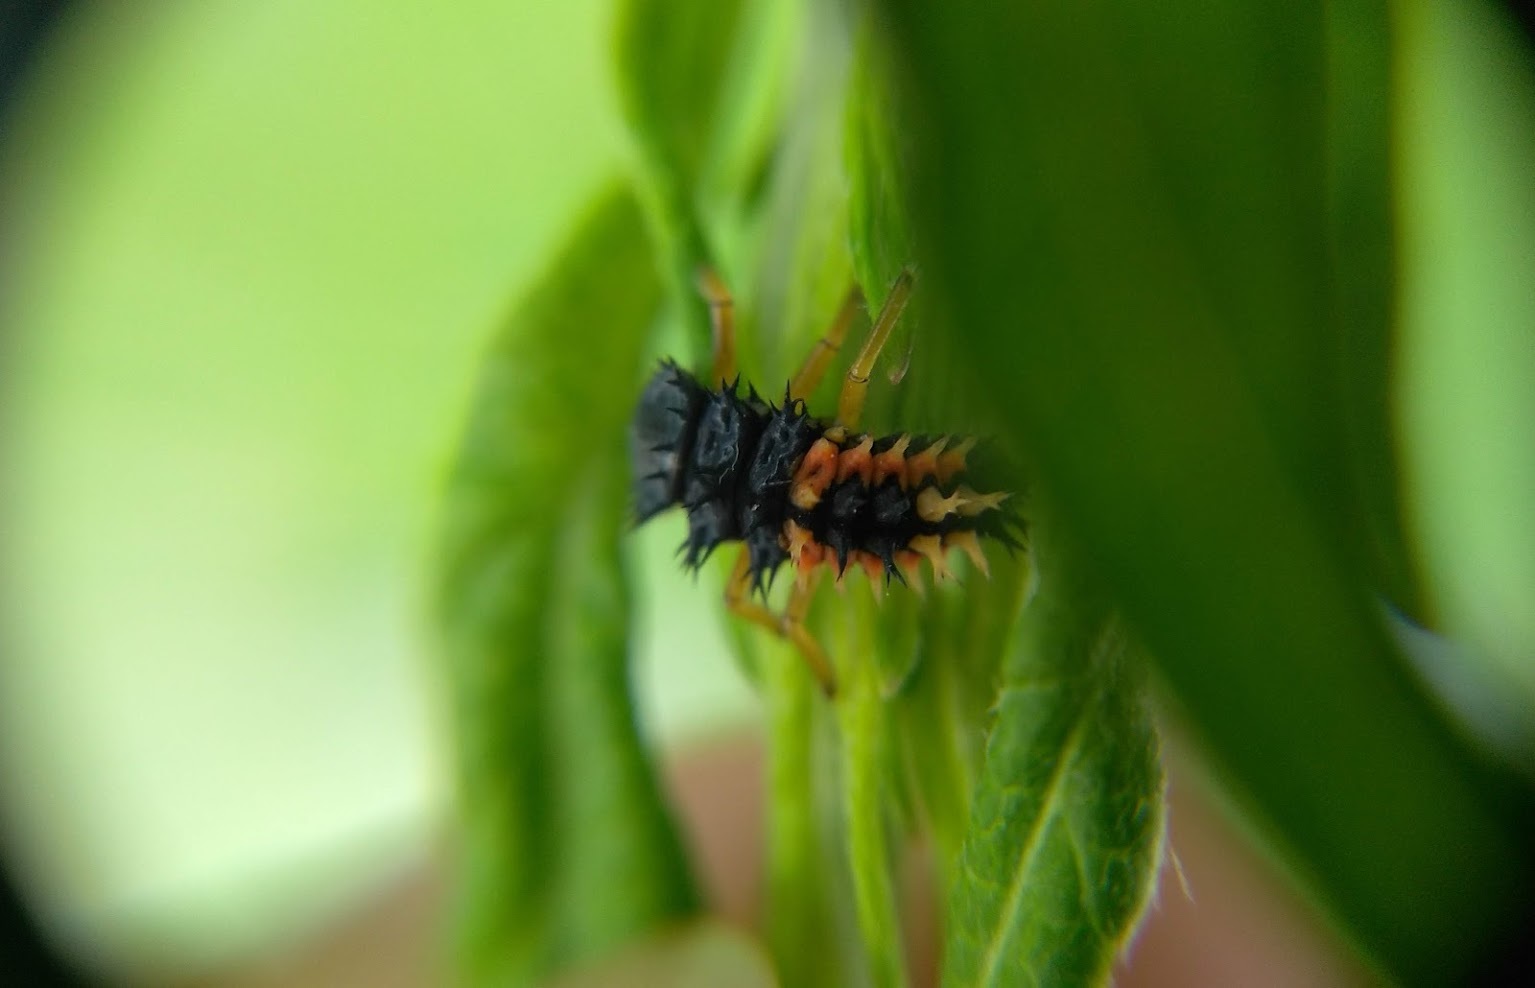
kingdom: Animalia
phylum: Arthropoda
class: Insecta
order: Coleoptera
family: Coccinellidae
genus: Harmonia
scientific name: Harmonia axyridis
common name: Harlequin ladybird
